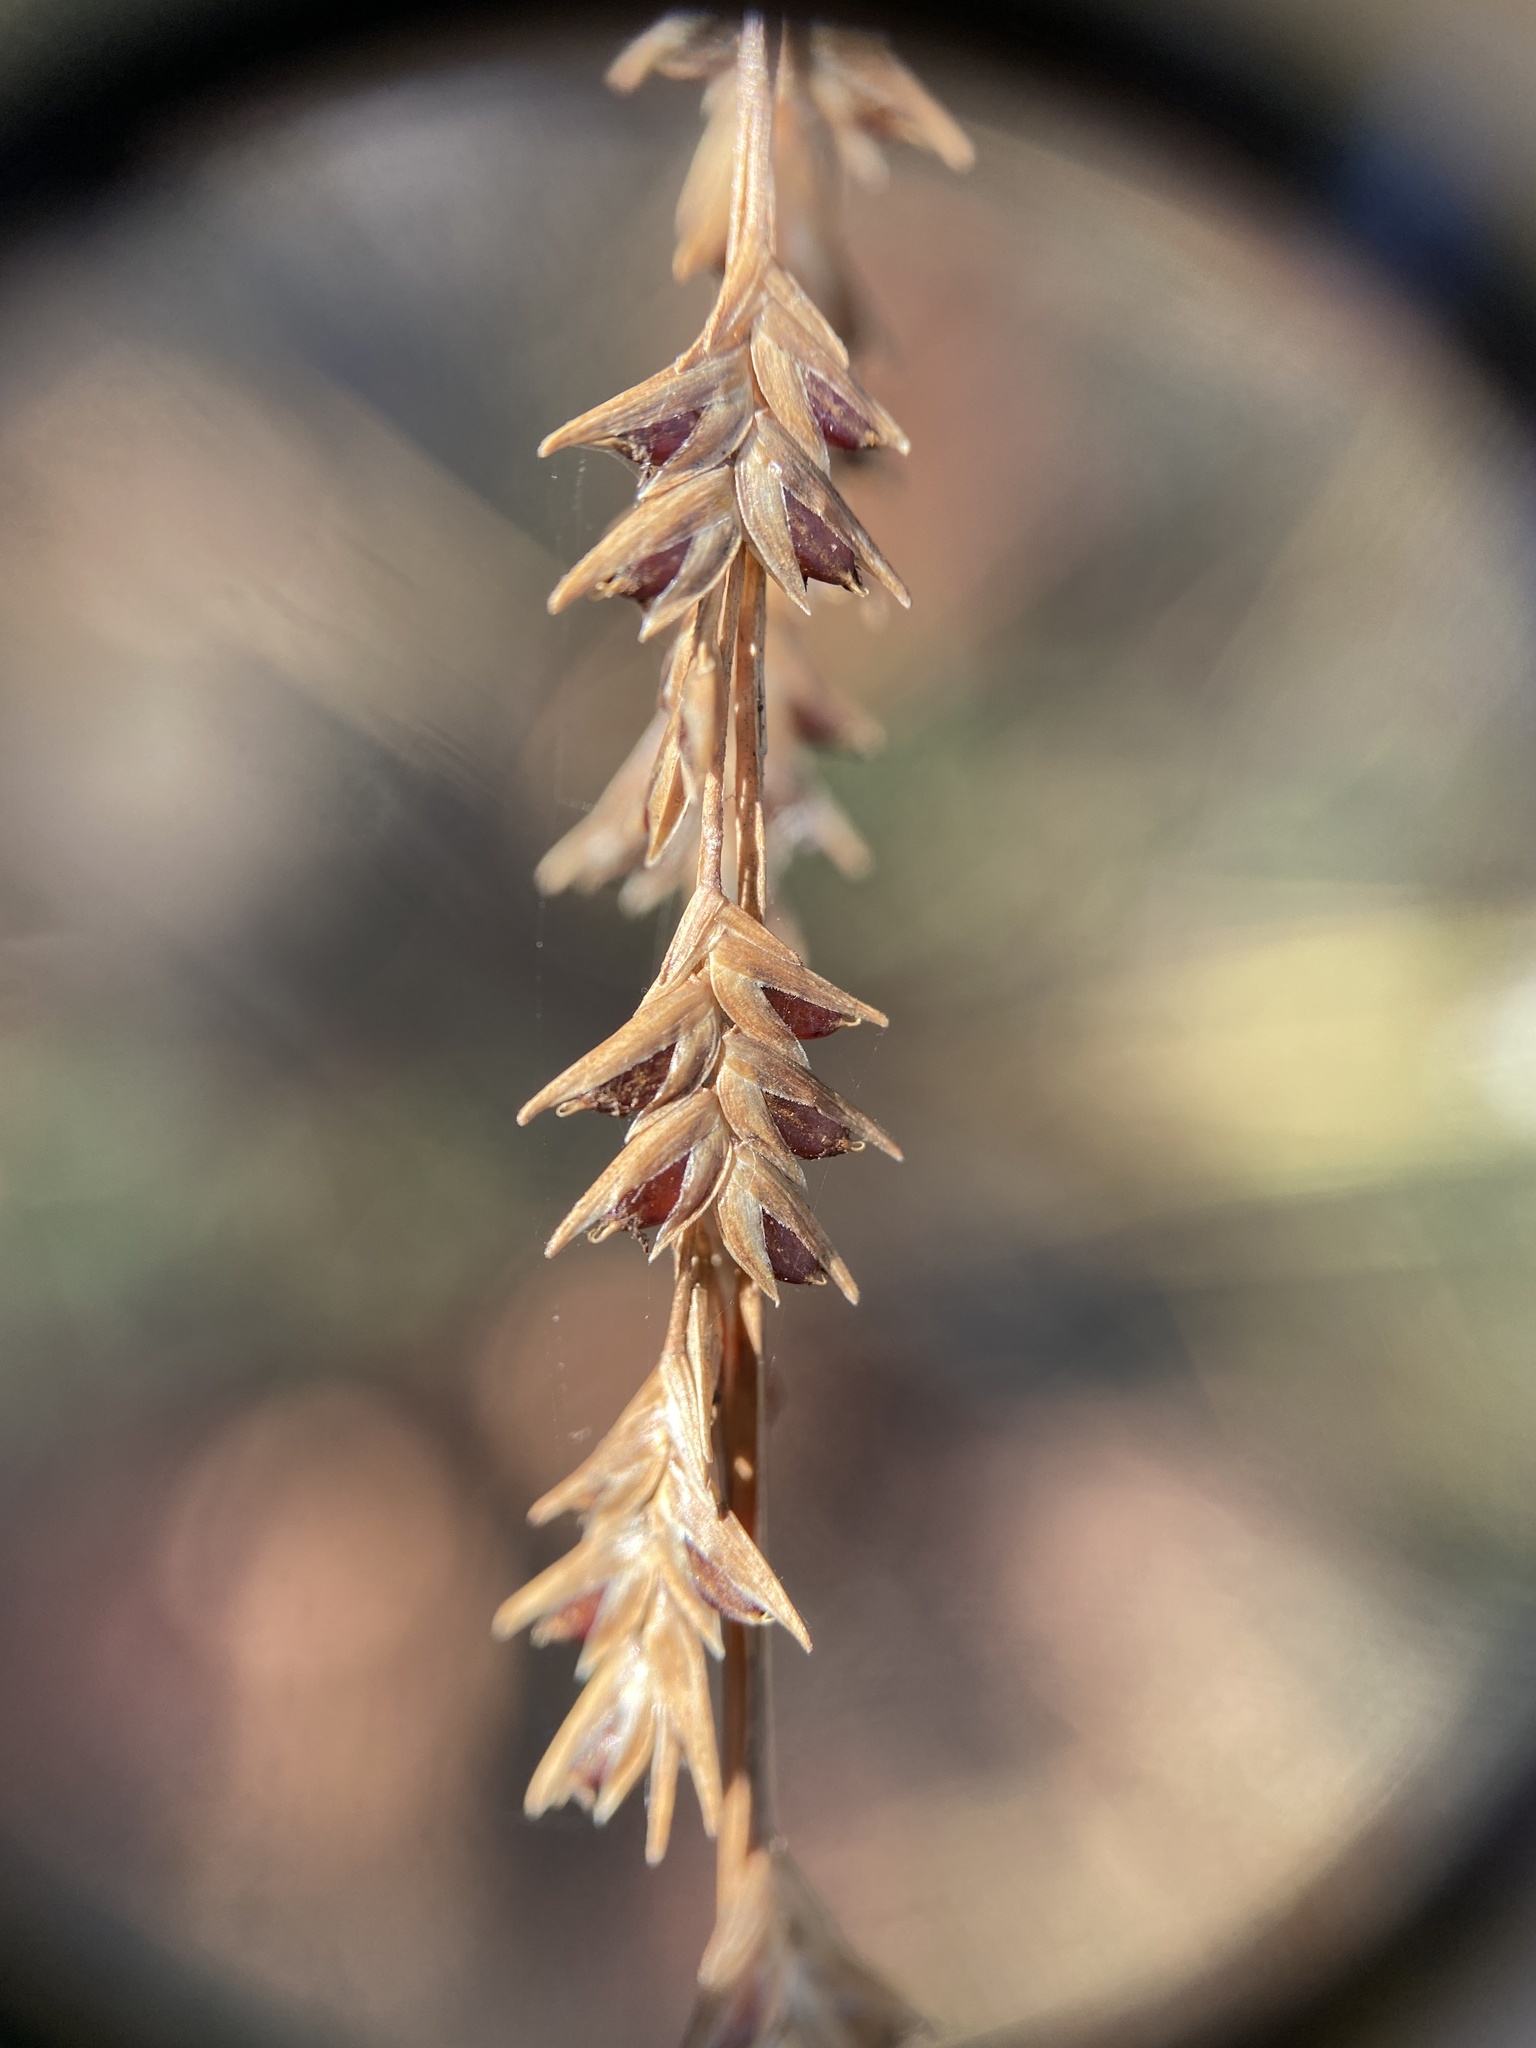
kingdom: Plantae
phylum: Tracheophyta
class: Liliopsida
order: Poales
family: Poaceae
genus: Chasmanthium
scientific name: Chasmanthium laxum
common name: Slender chasmanthium
